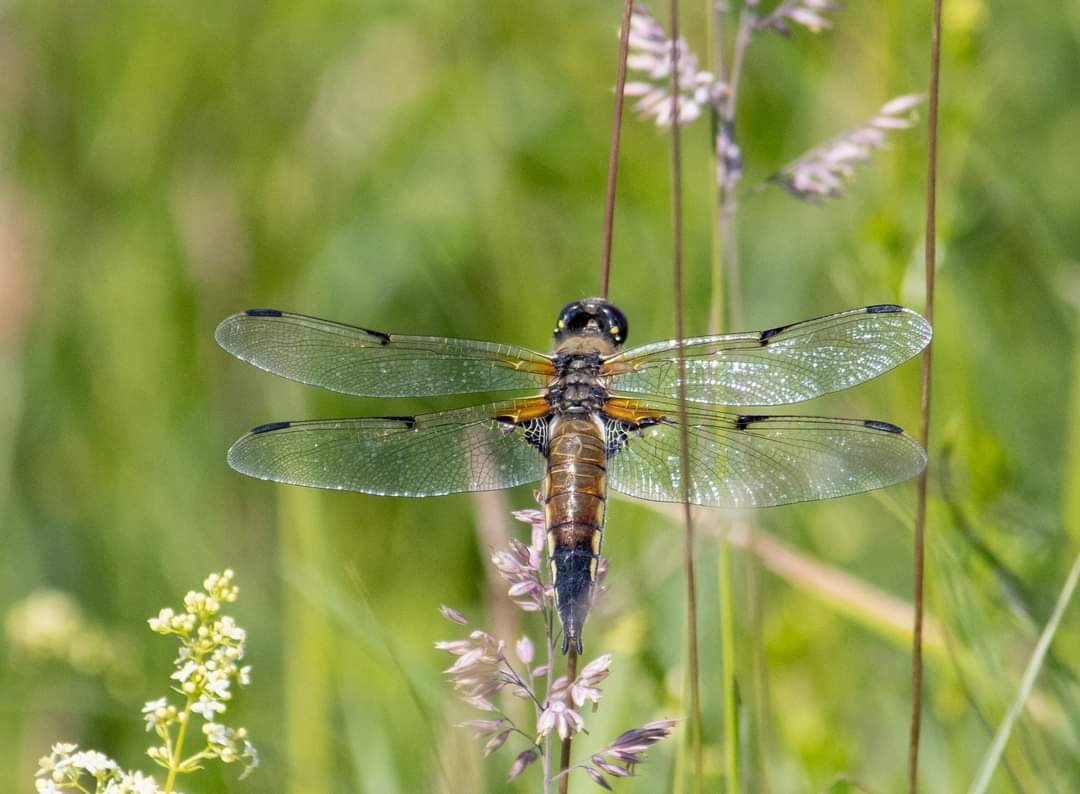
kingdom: Animalia
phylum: Arthropoda
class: Insecta
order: Odonata
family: Libellulidae
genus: Libellula
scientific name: Libellula quadrimaculata
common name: Four-spotted chaser
